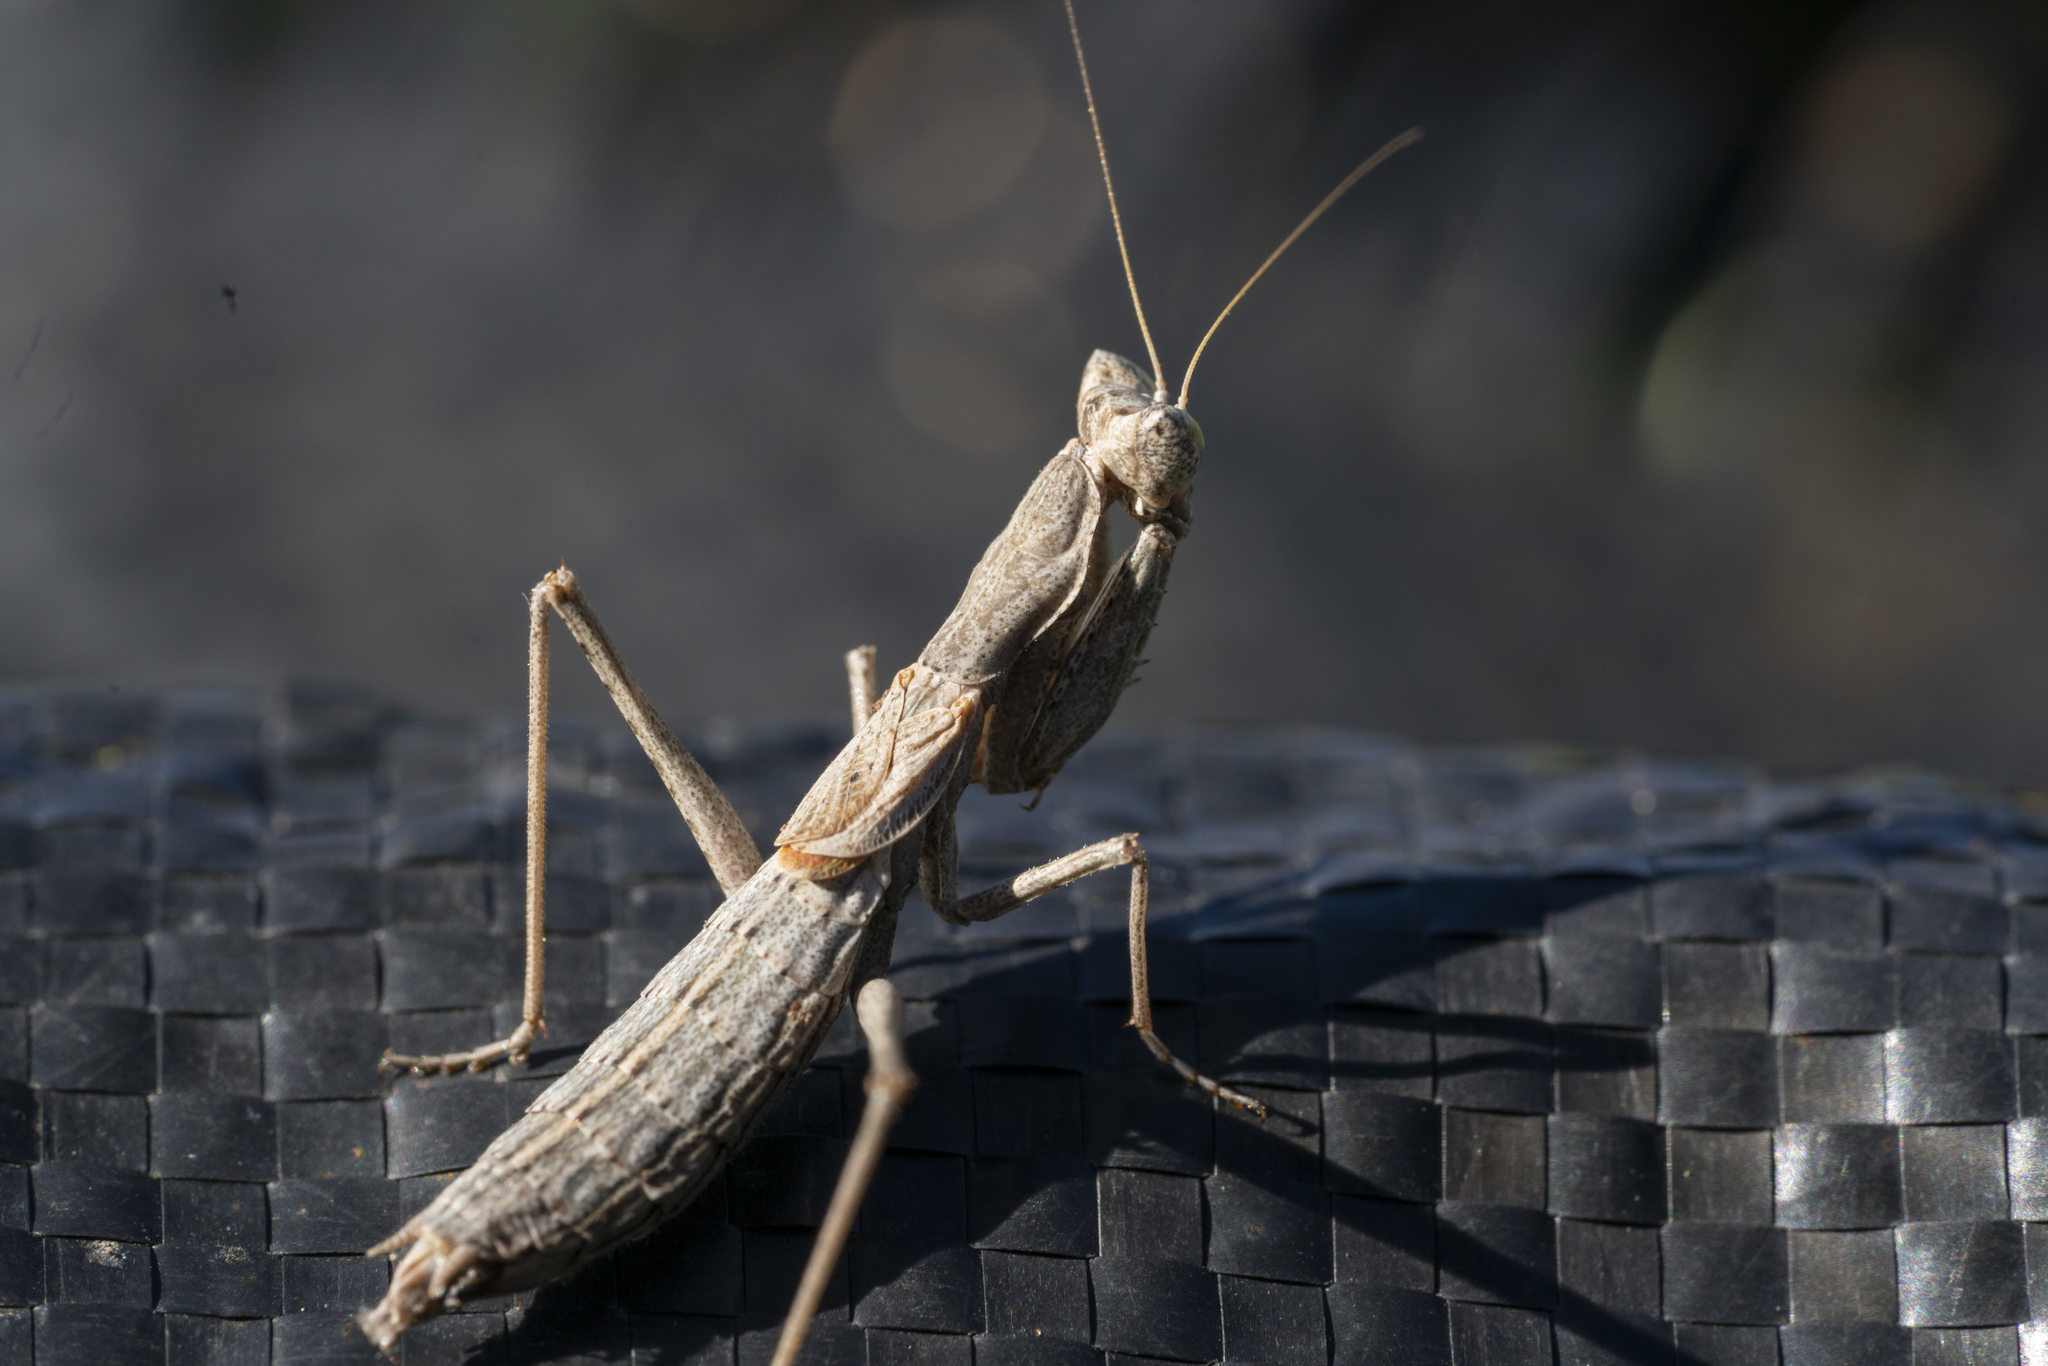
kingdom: Animalia
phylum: Arthropoda
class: Insecta
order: Mantodea
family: Amelidae
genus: Ameles
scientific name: Ameles heldreichi
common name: Heldreich's dwarf mantis
